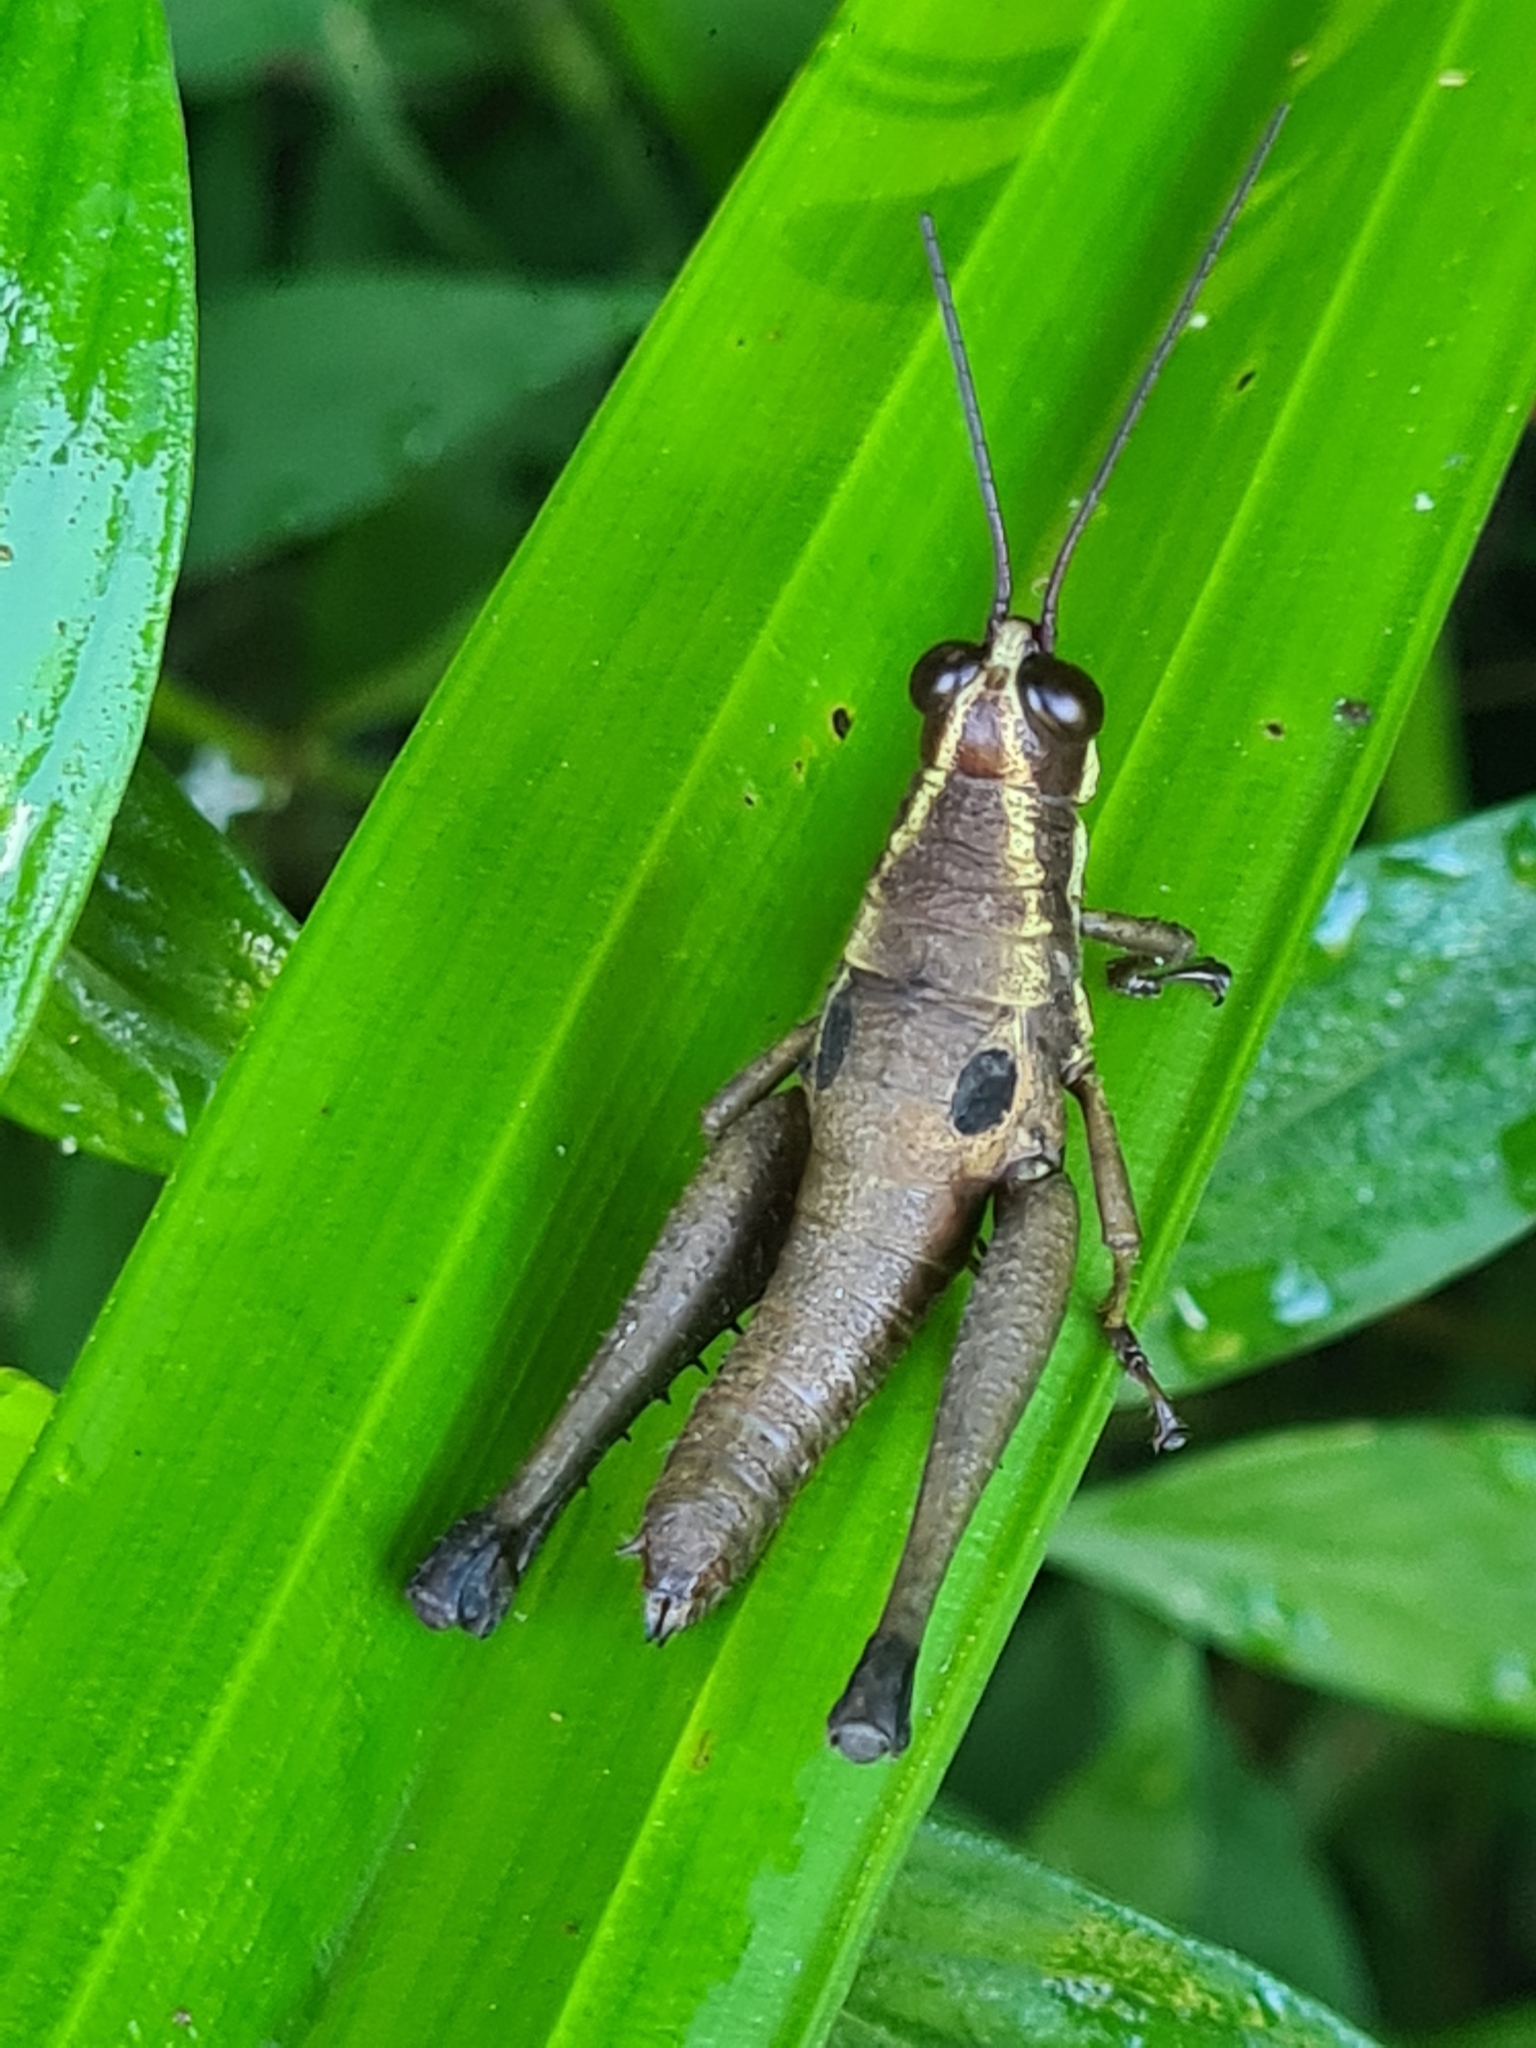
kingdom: Animalia
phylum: Arthropoda
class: Insecta
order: Orthoptera
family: Acrididae
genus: Ommatolampis
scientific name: Ommatolampis perspicillata
